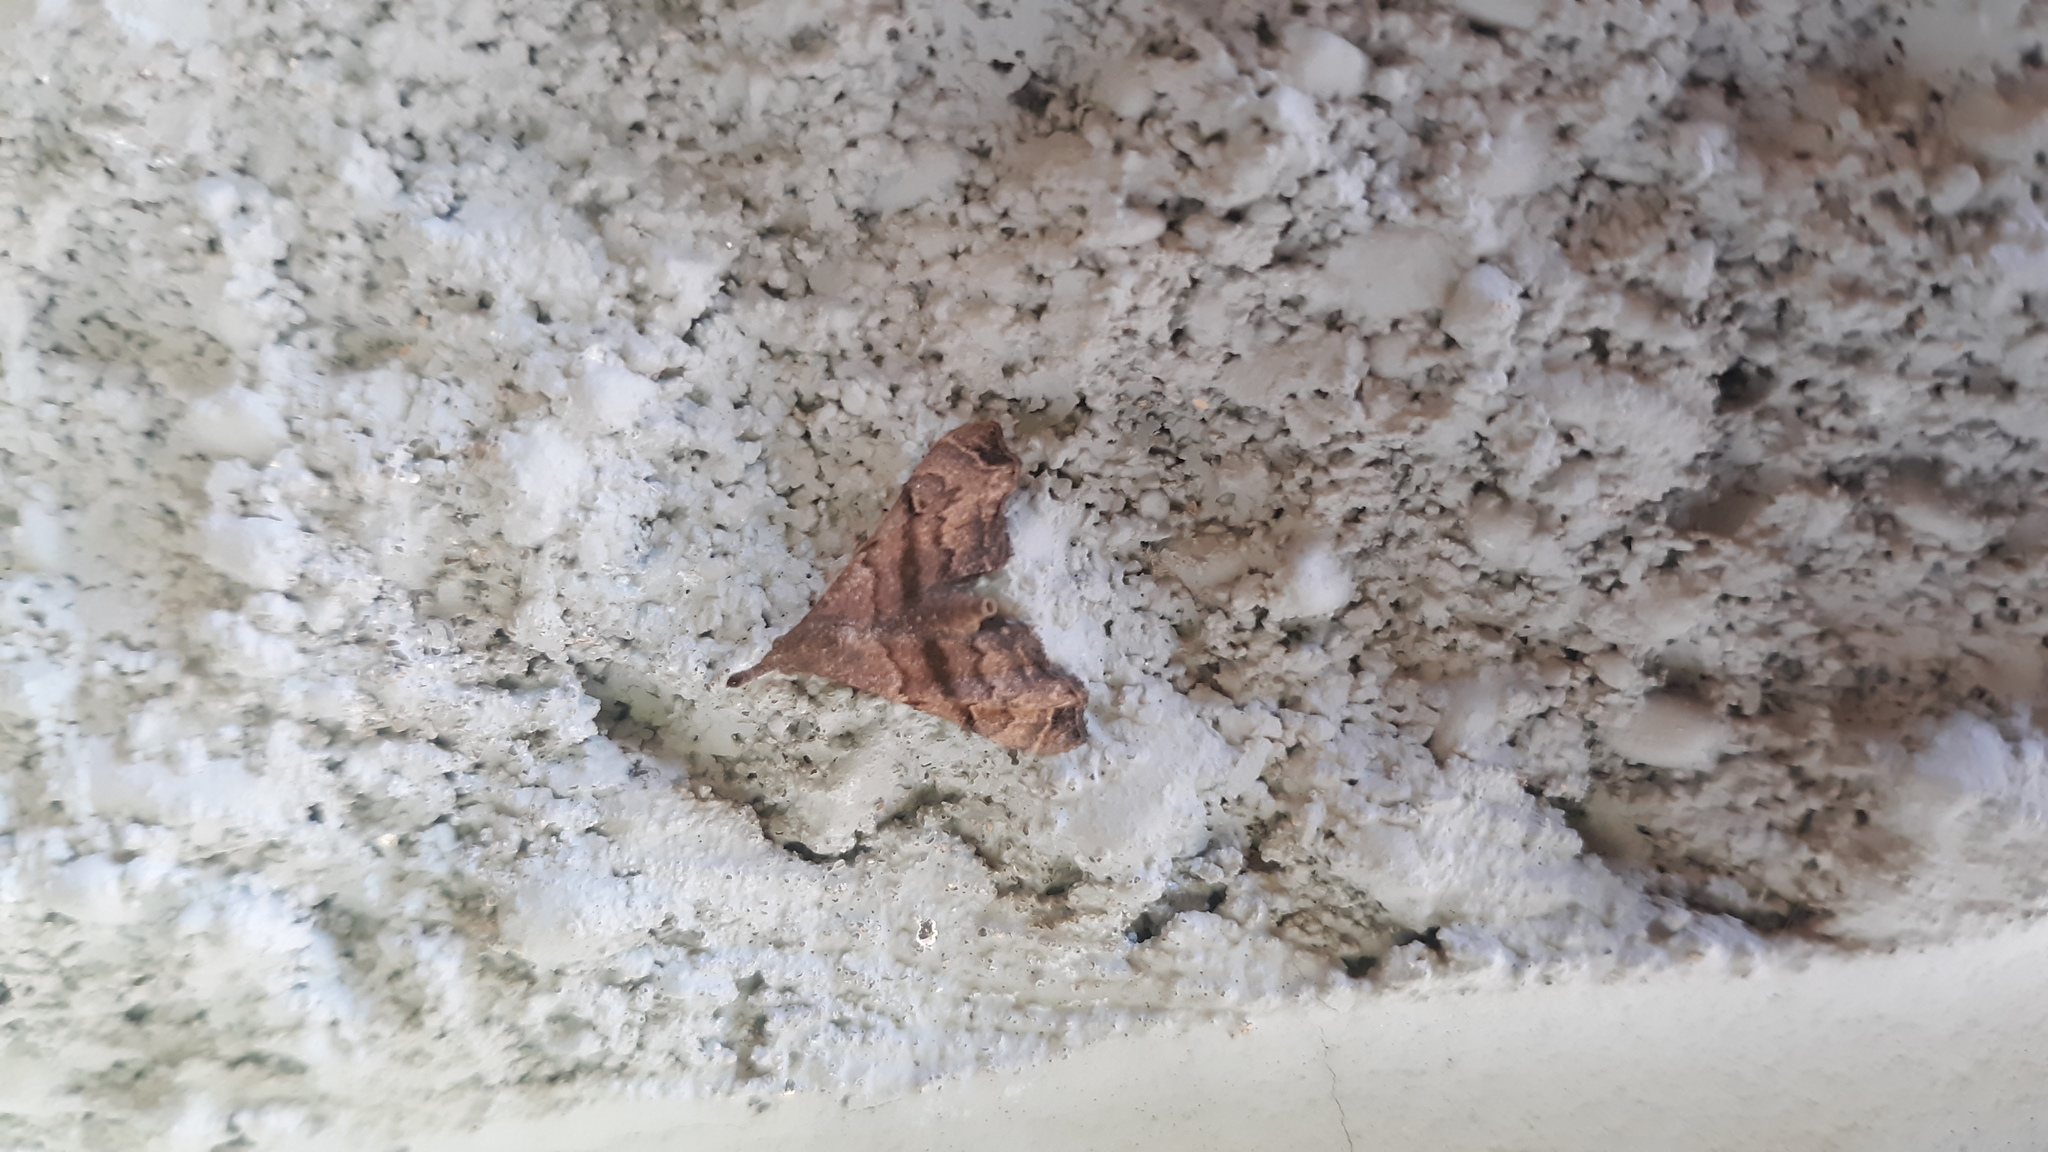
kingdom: Animalia
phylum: Arthropoda
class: Insecta
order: Lepidoptera
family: Erebidae
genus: Palthis
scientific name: Palthis asopialis
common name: Faint-spotted palthis moth
